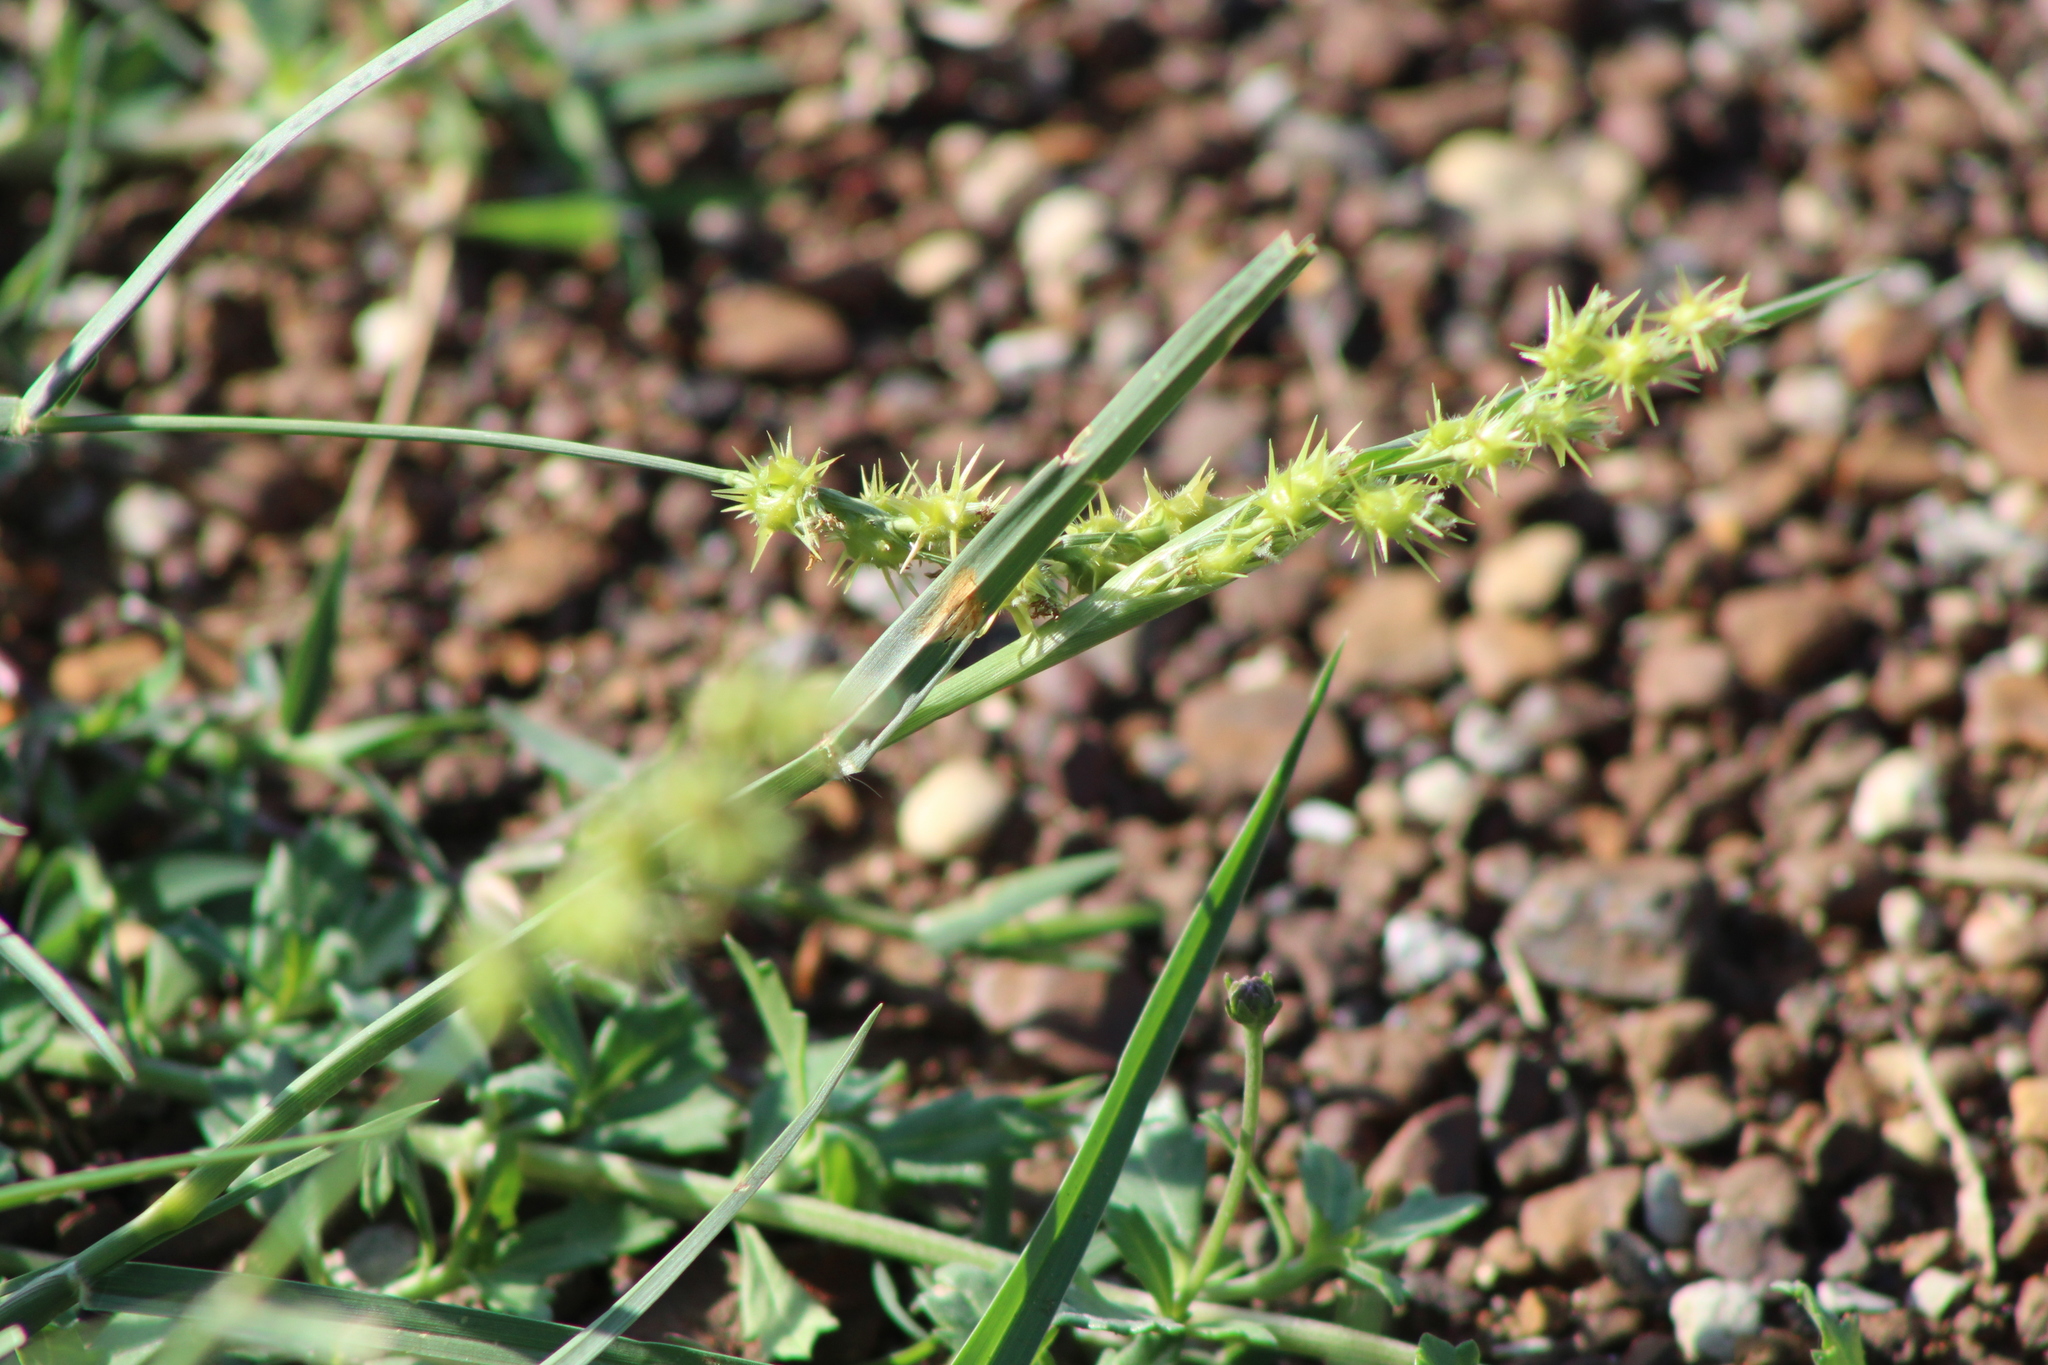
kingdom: Plantae
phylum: Tracheophyta
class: Liliopsida
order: Poales
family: Poaceae
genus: Cenchrus
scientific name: Cenchrus spinifex
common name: Coast sandbur
